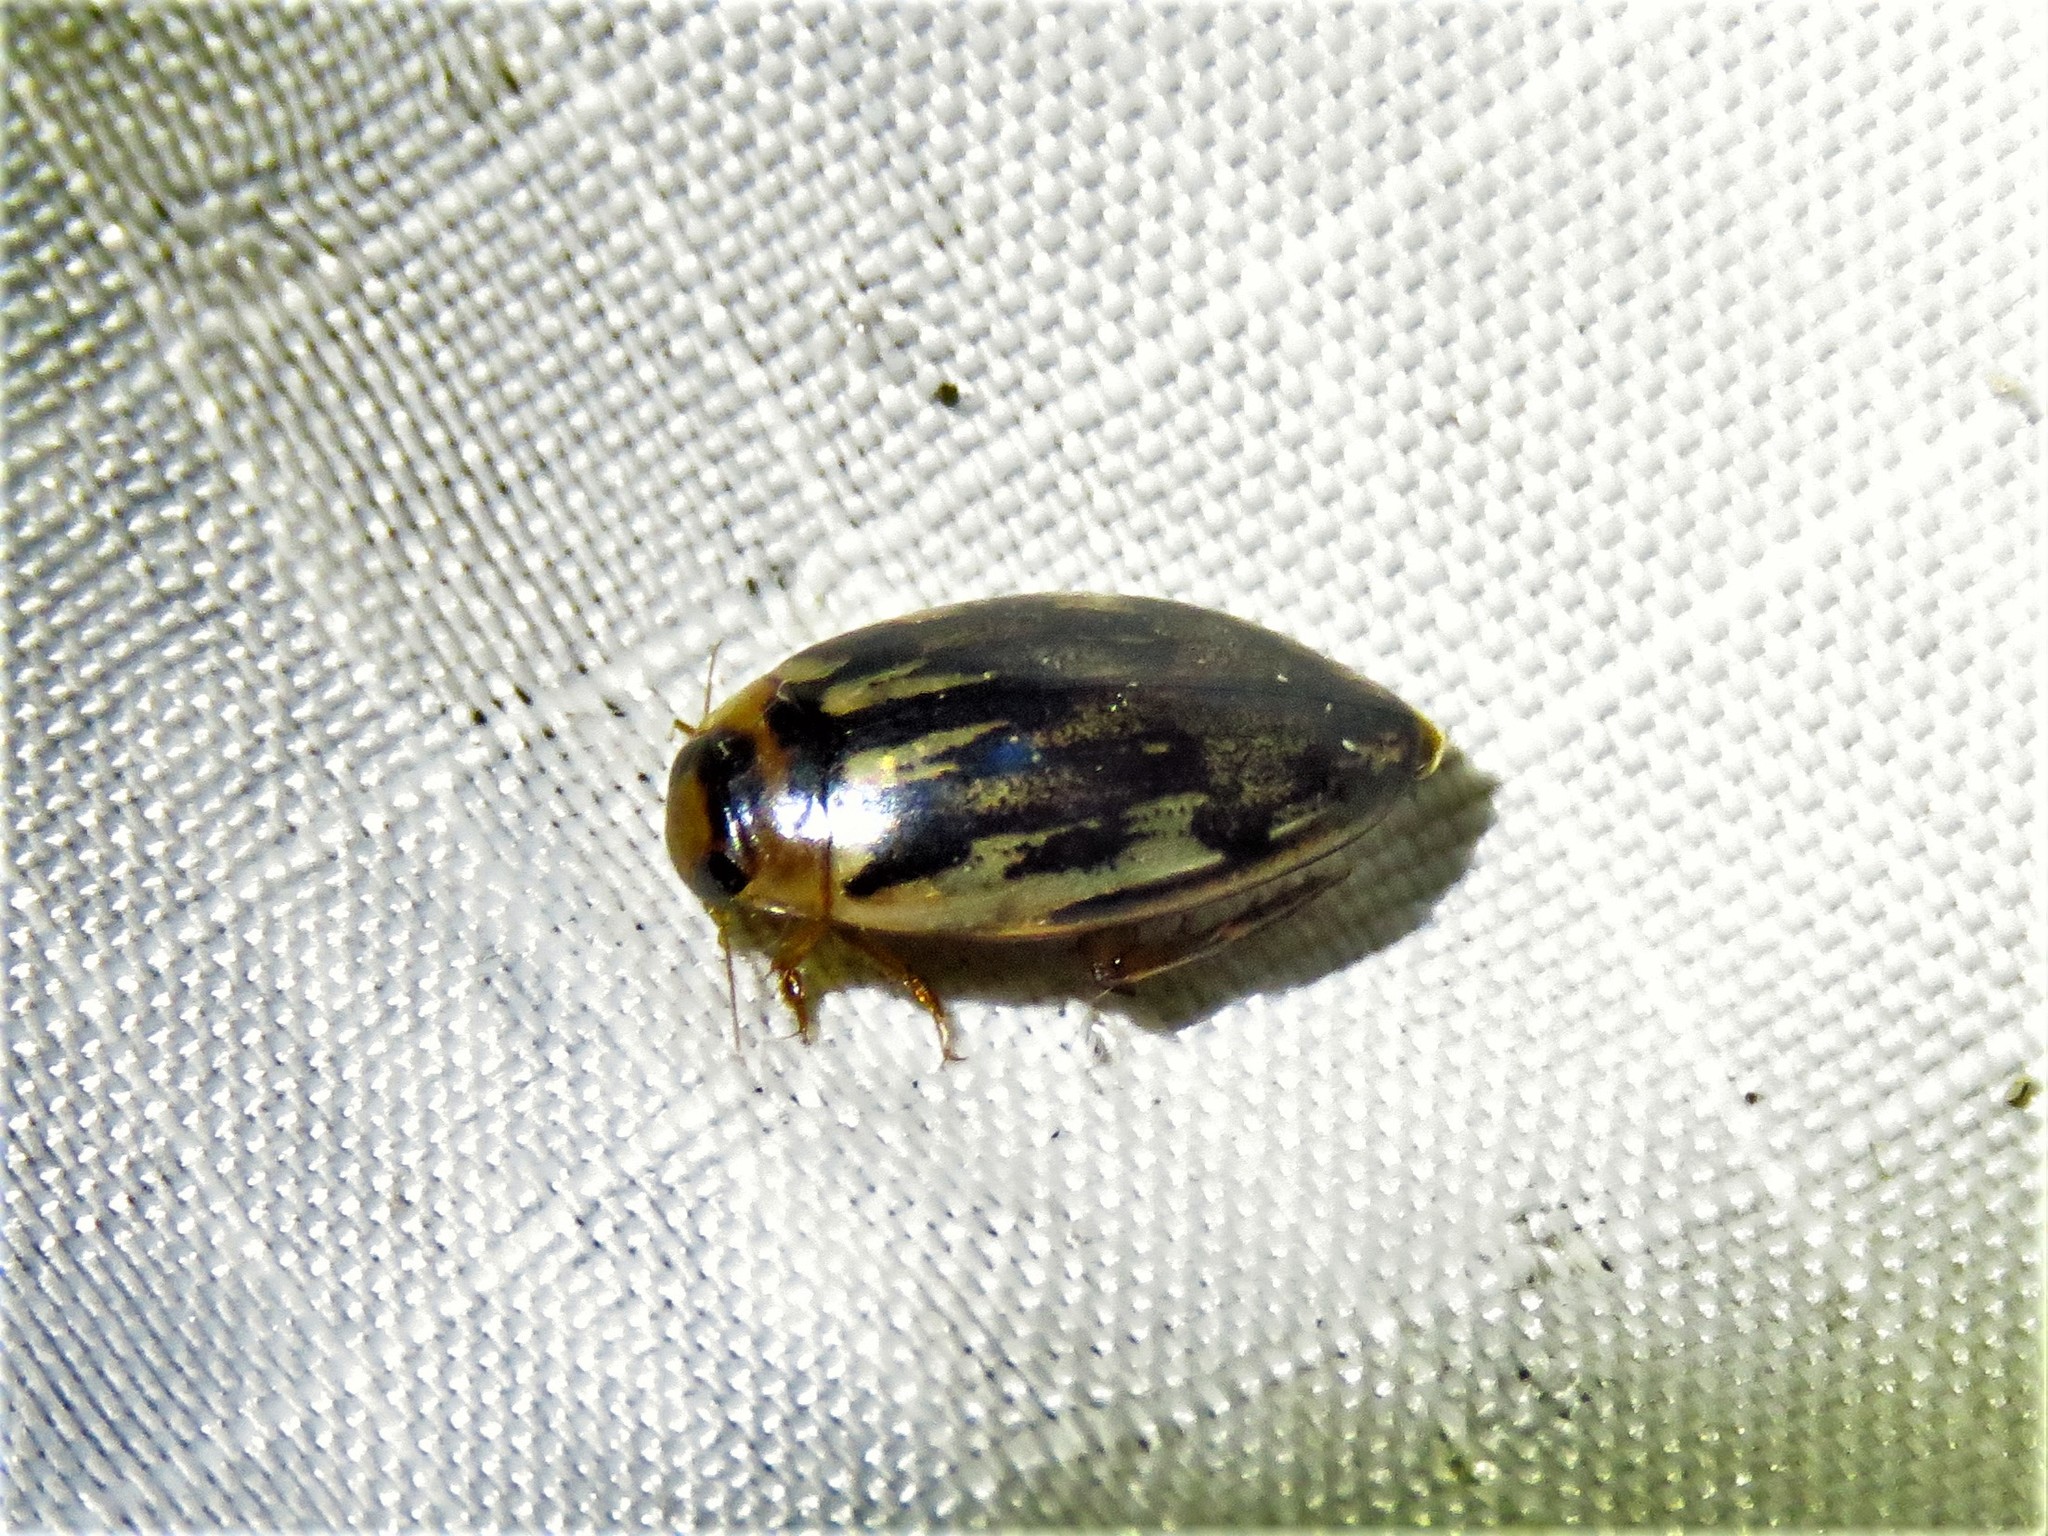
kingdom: Animalia
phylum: Arthropoda
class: Insecta
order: Coleoptera
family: Dytiscidae
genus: Coptotomus
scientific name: Coptotomus venustus
